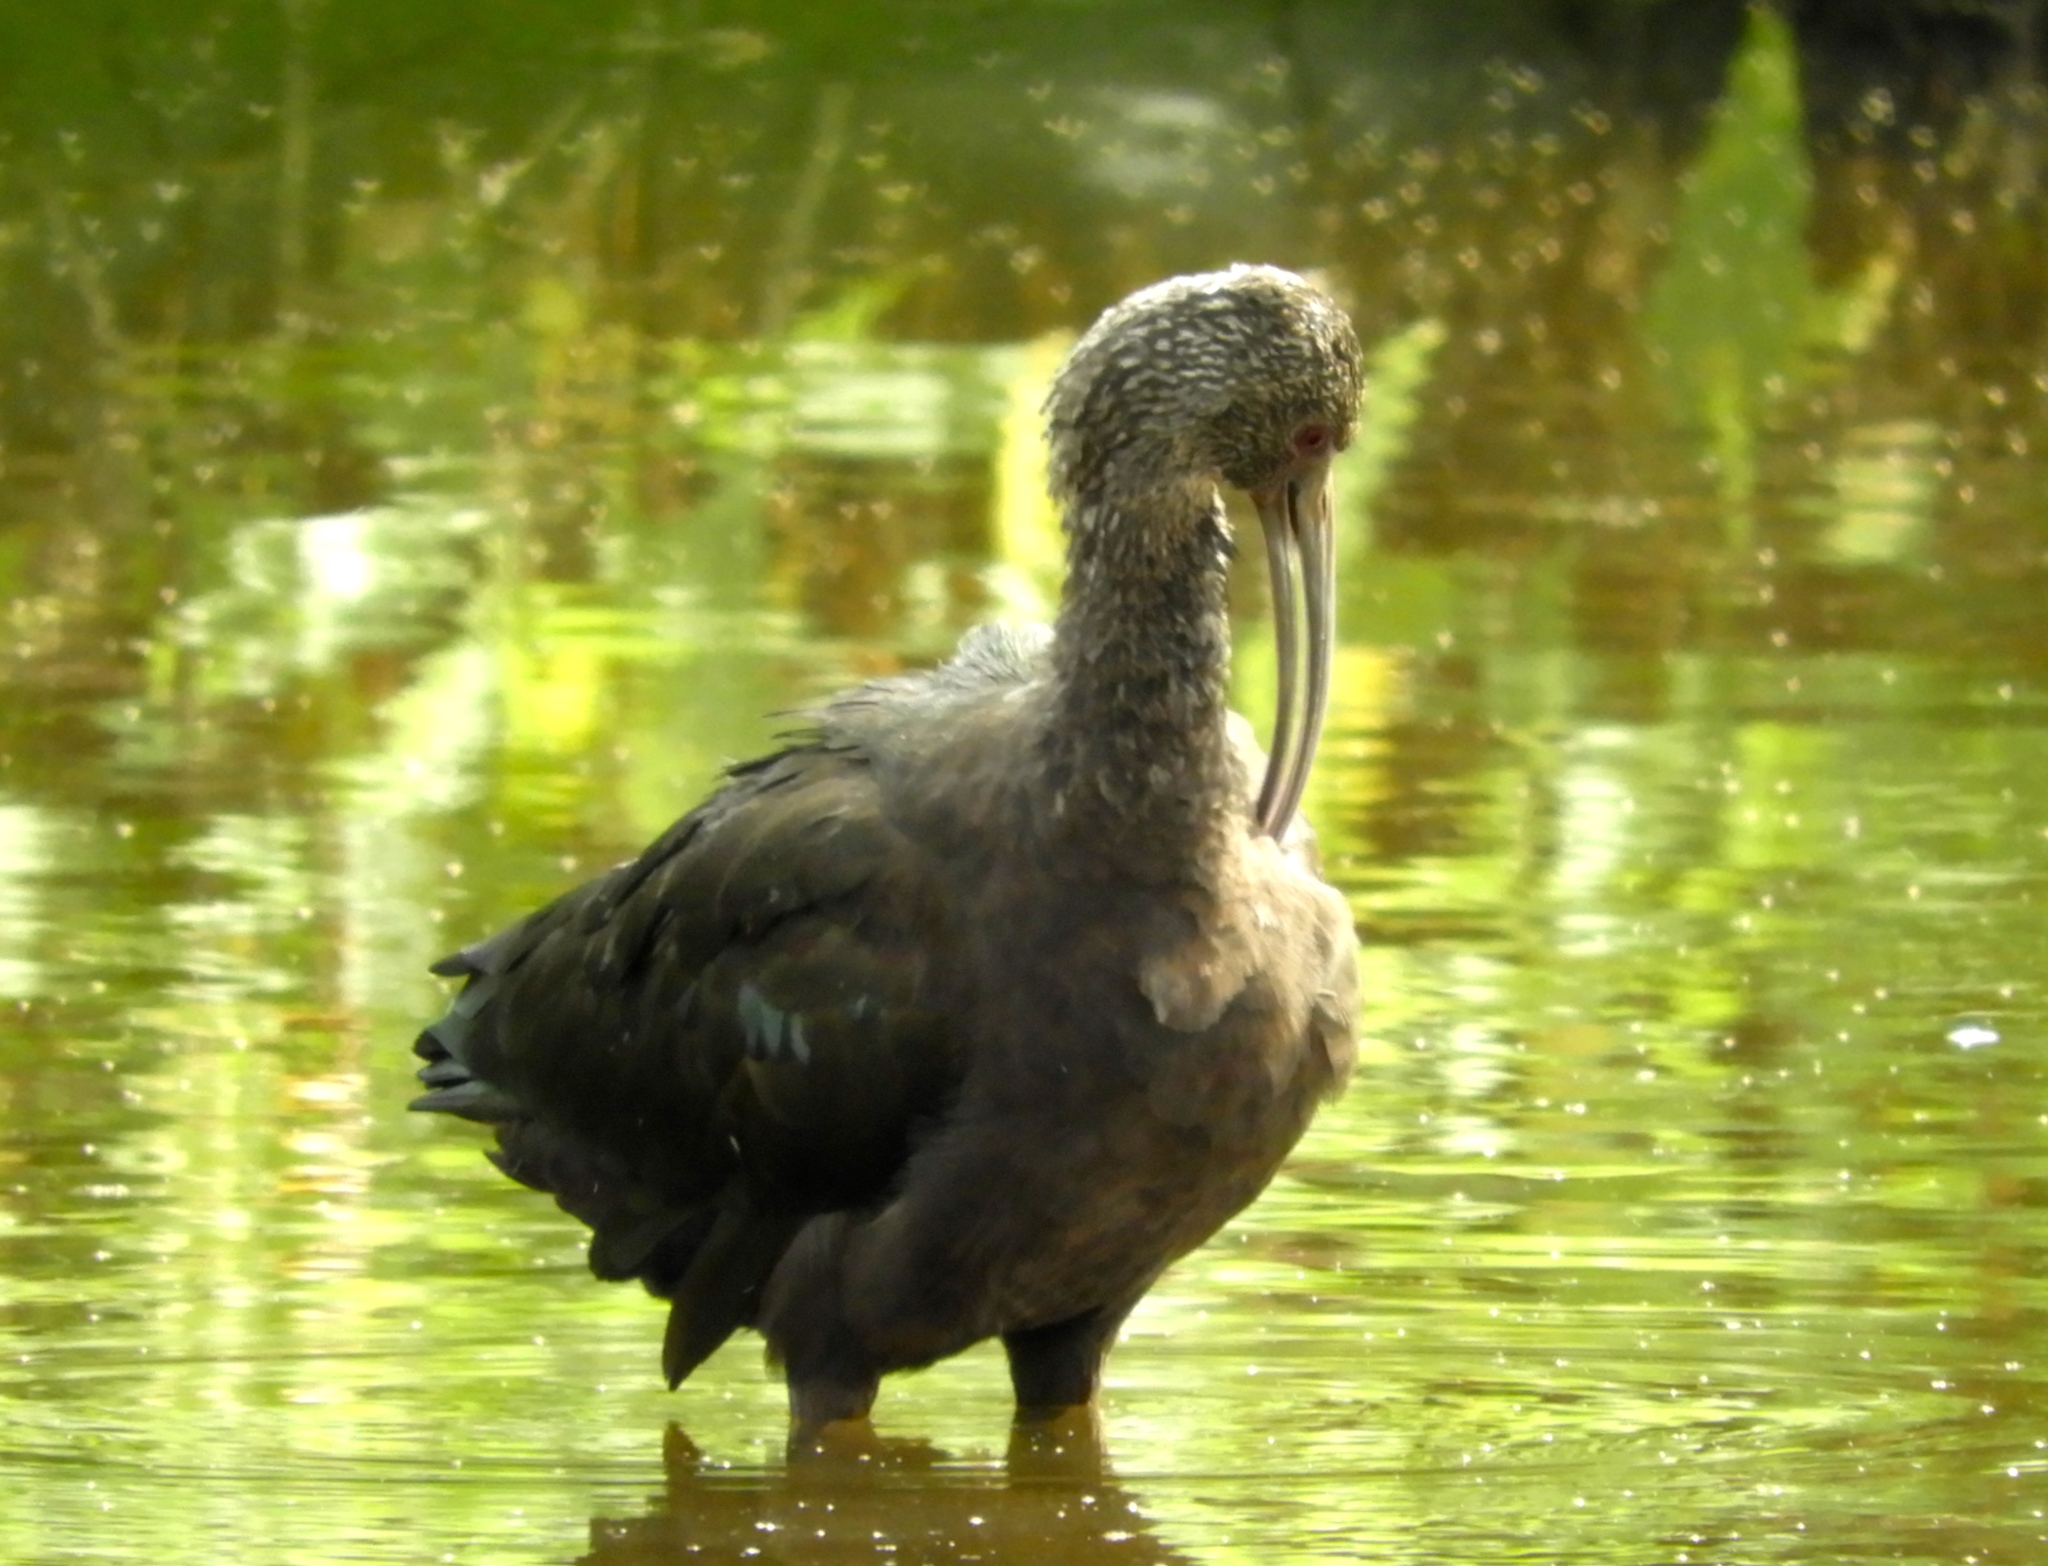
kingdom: Animalia
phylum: Chordata
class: Aves
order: Pelecaniformes
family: Threskiornithidae
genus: Plegadis
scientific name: Plegadis chihi
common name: White-faced ibis
